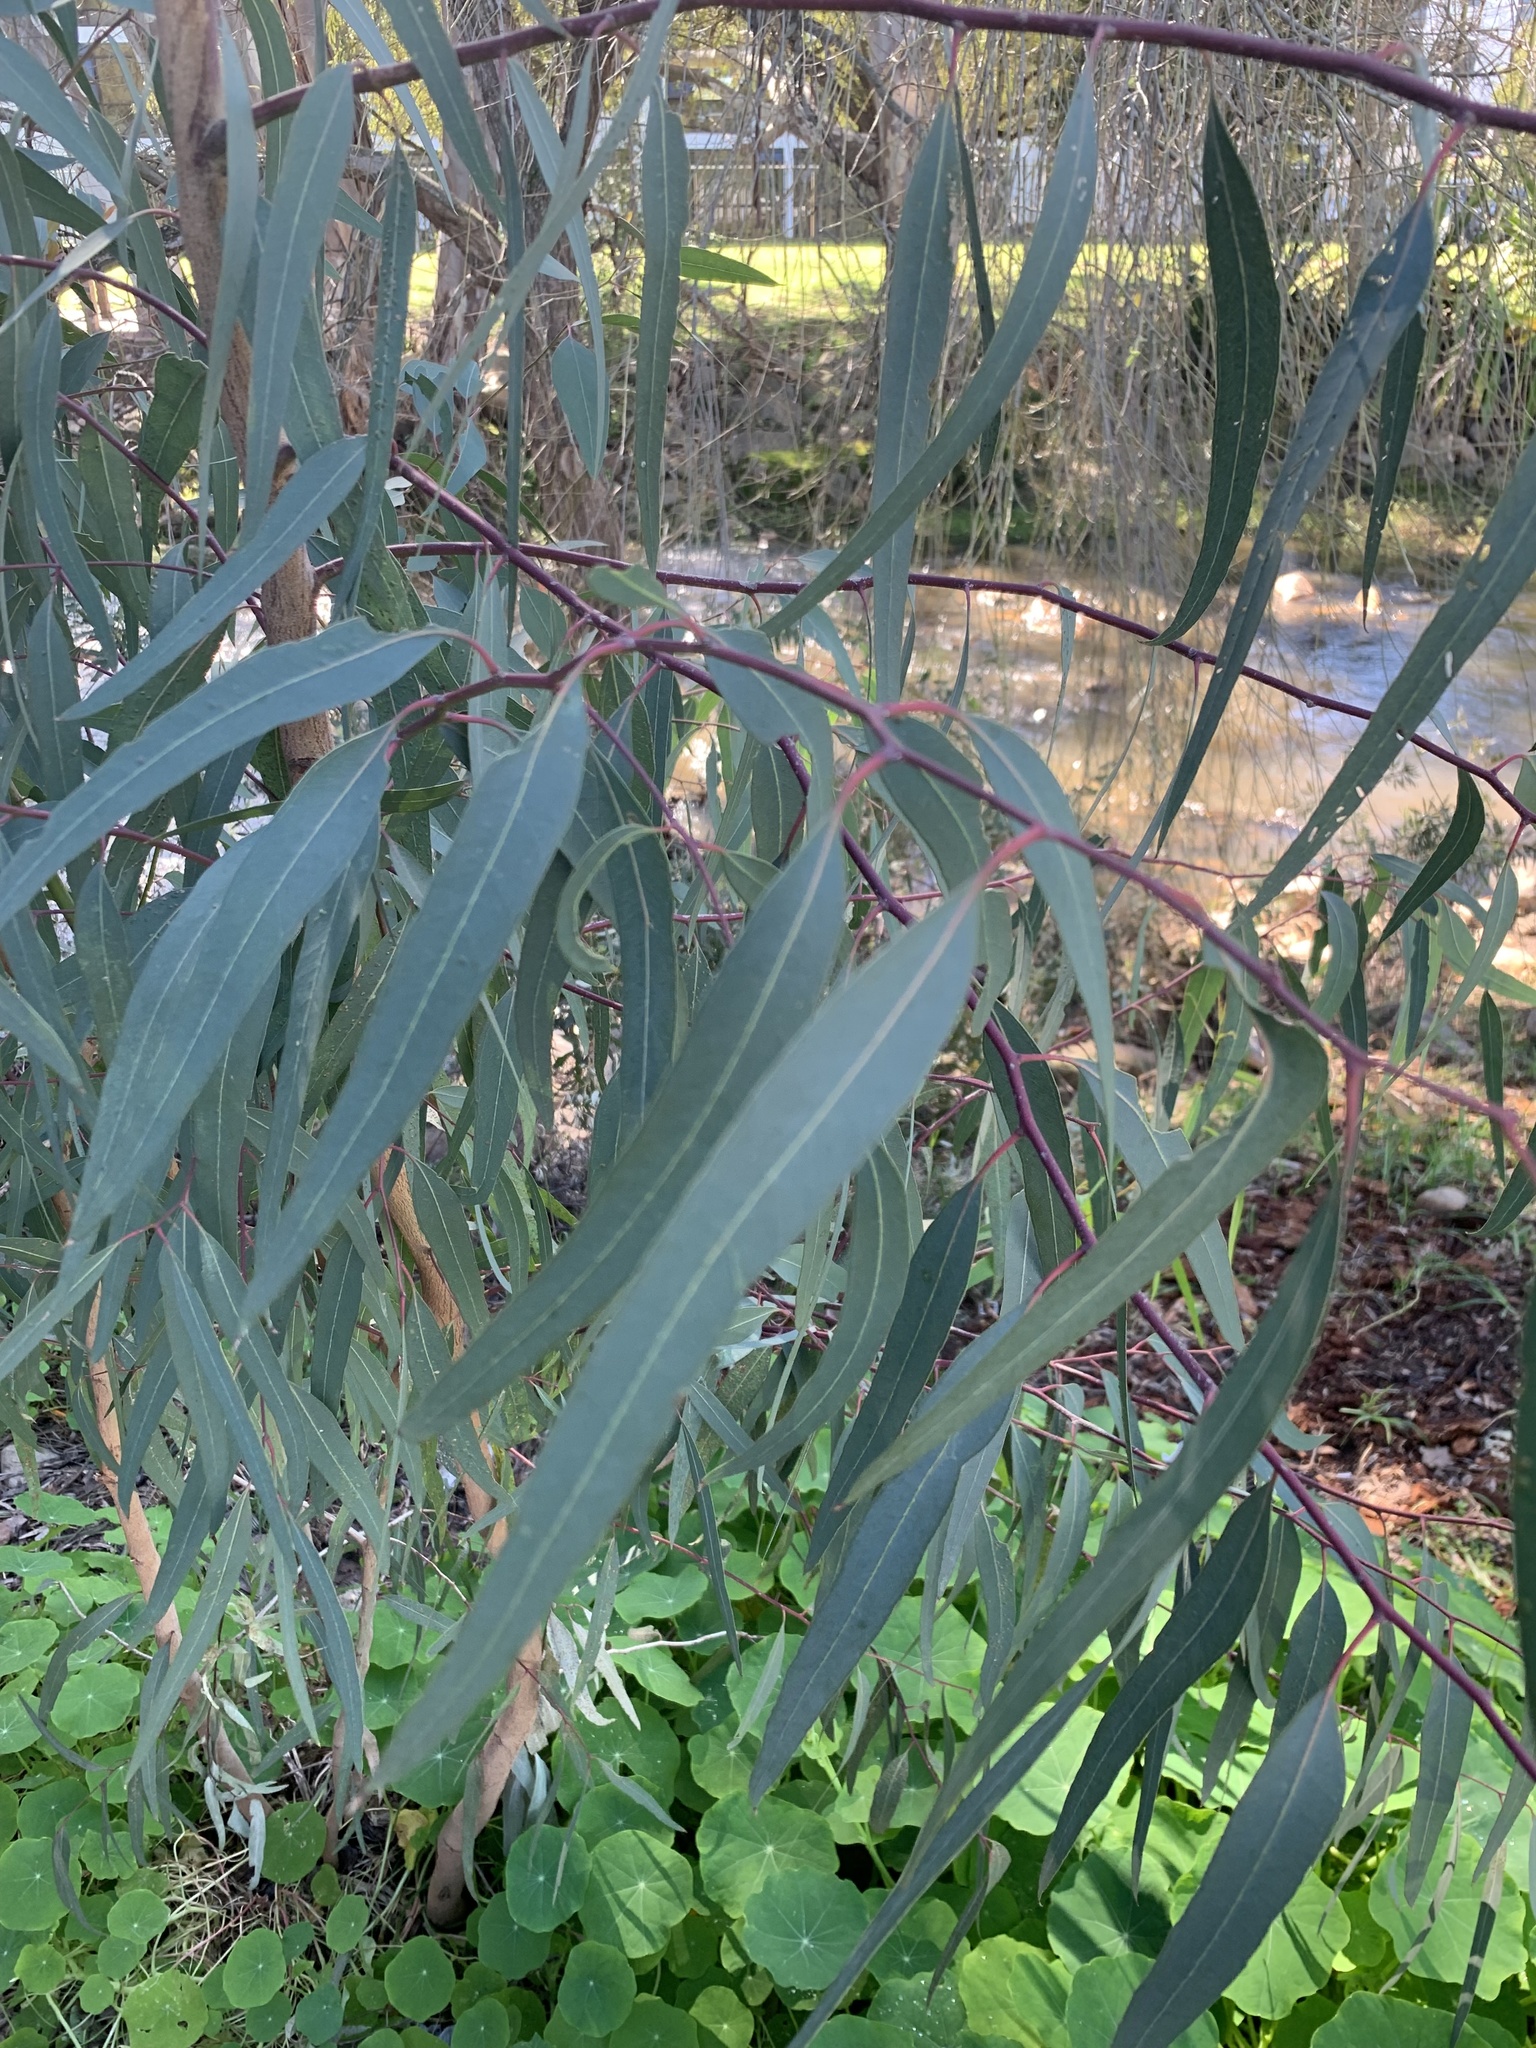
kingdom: Plantae
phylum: Tracheophyta
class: Magnoliopsida
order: Myrtales
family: Myrtaceae
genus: Eucalyptus
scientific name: Eucalyptus camaldulensis
